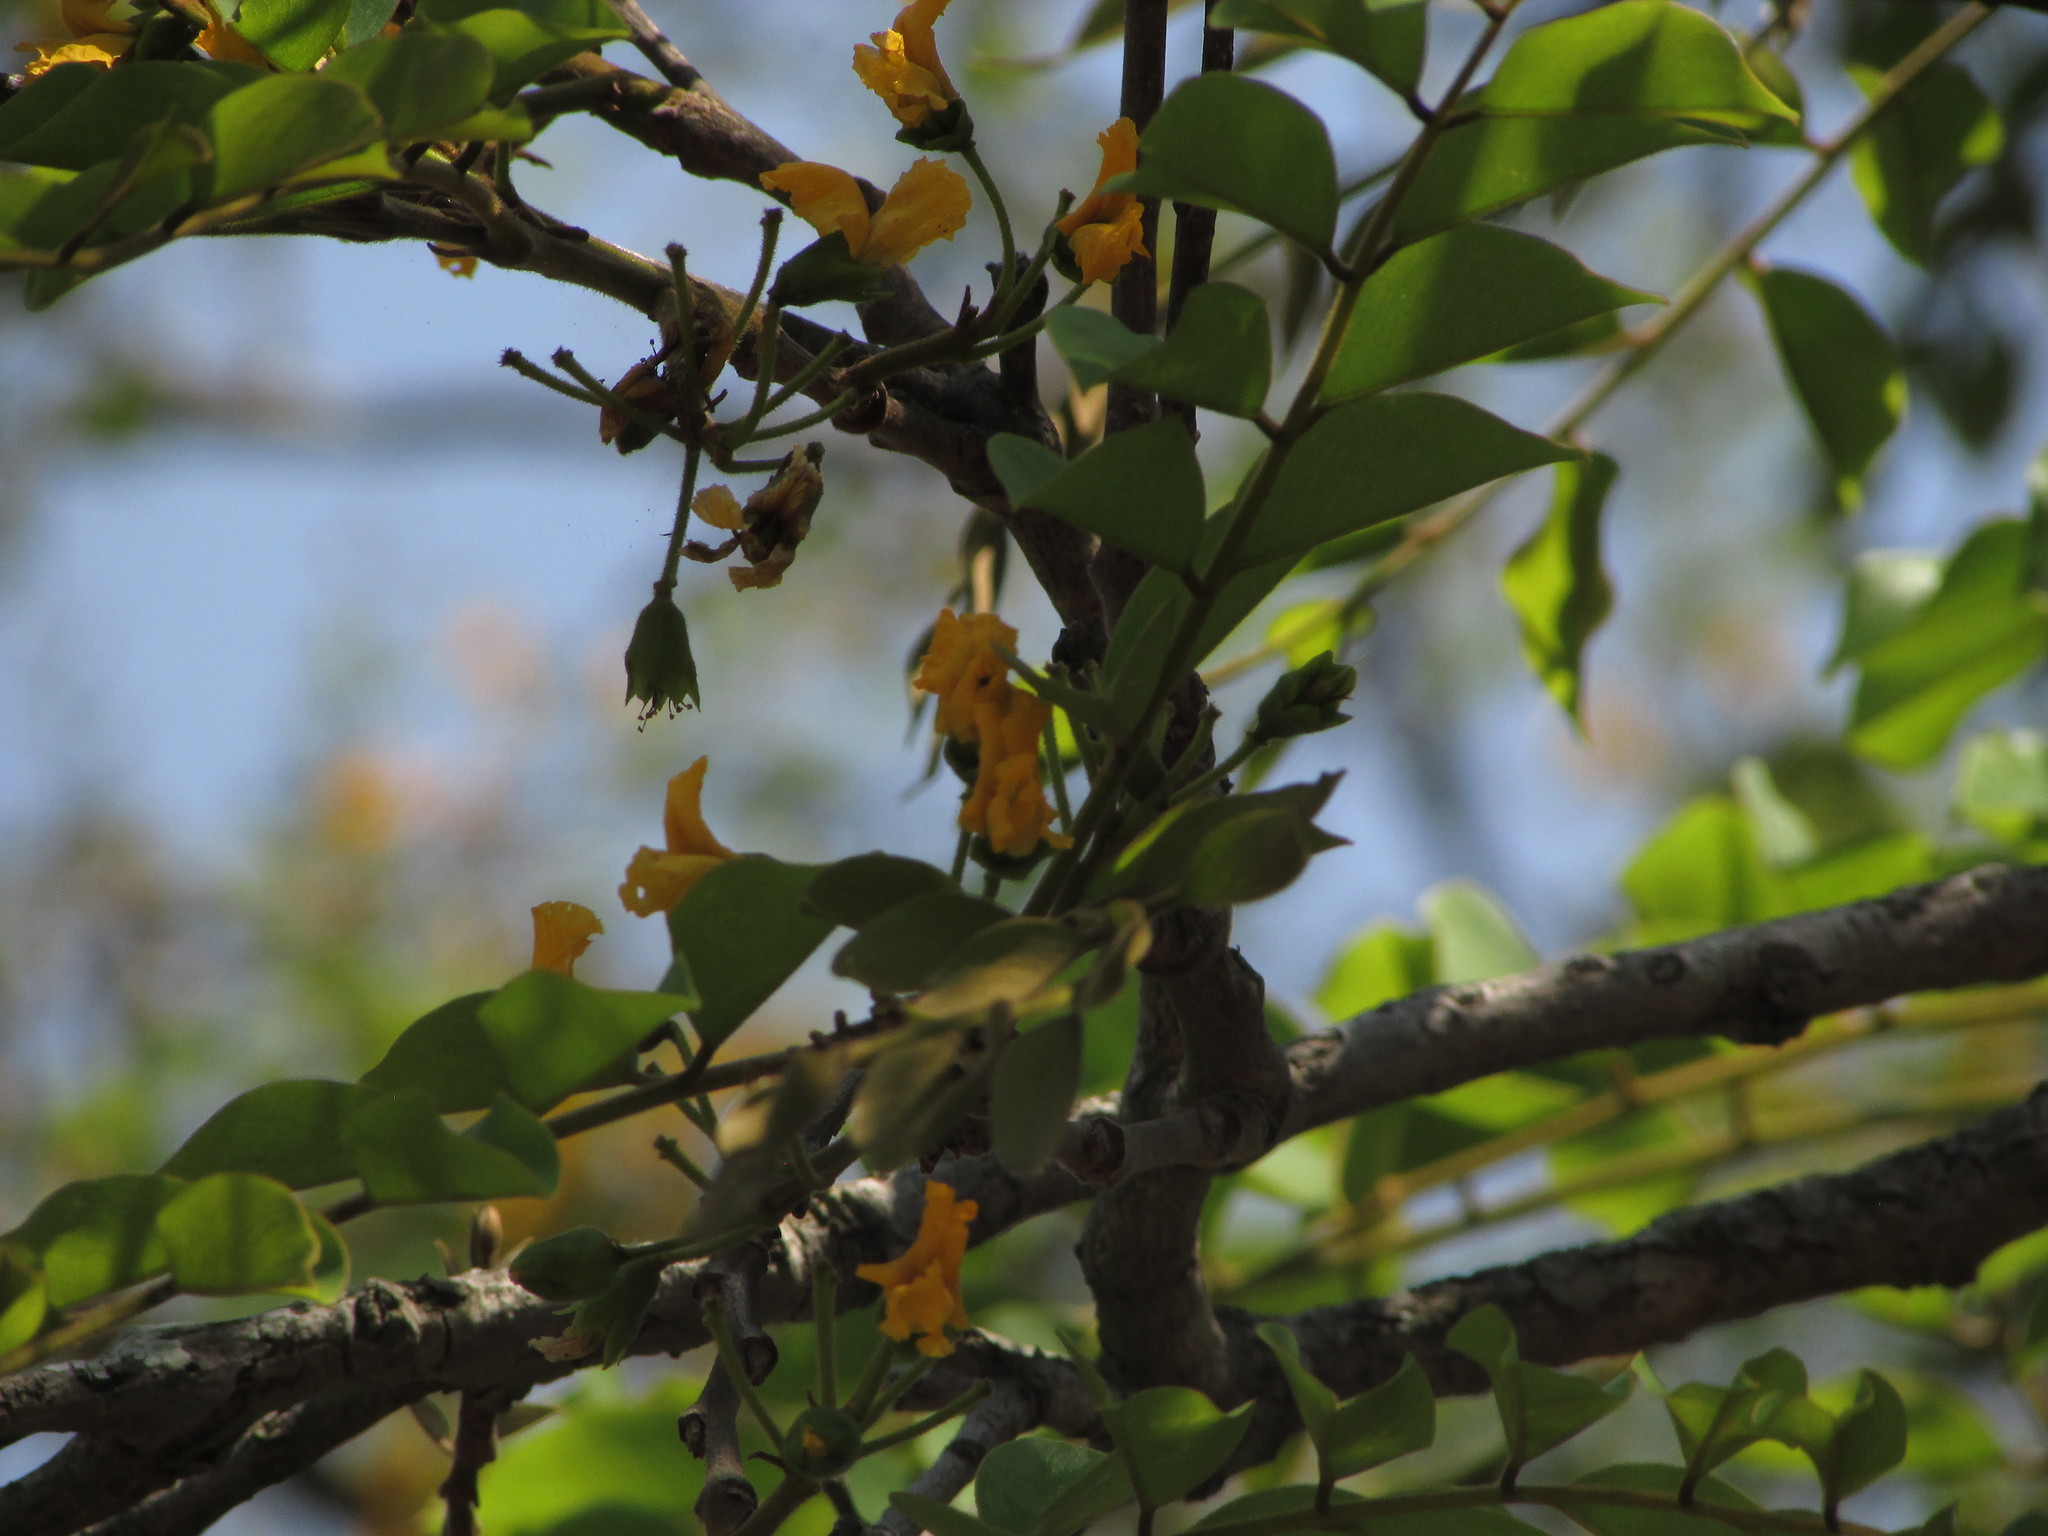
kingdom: Plantae
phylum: Tracheophyta
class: Magnoliopsida
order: Fabales
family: Fabaceae
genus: Pterocarpus
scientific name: Pterocarpus angolensis
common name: Bloodwood tree
